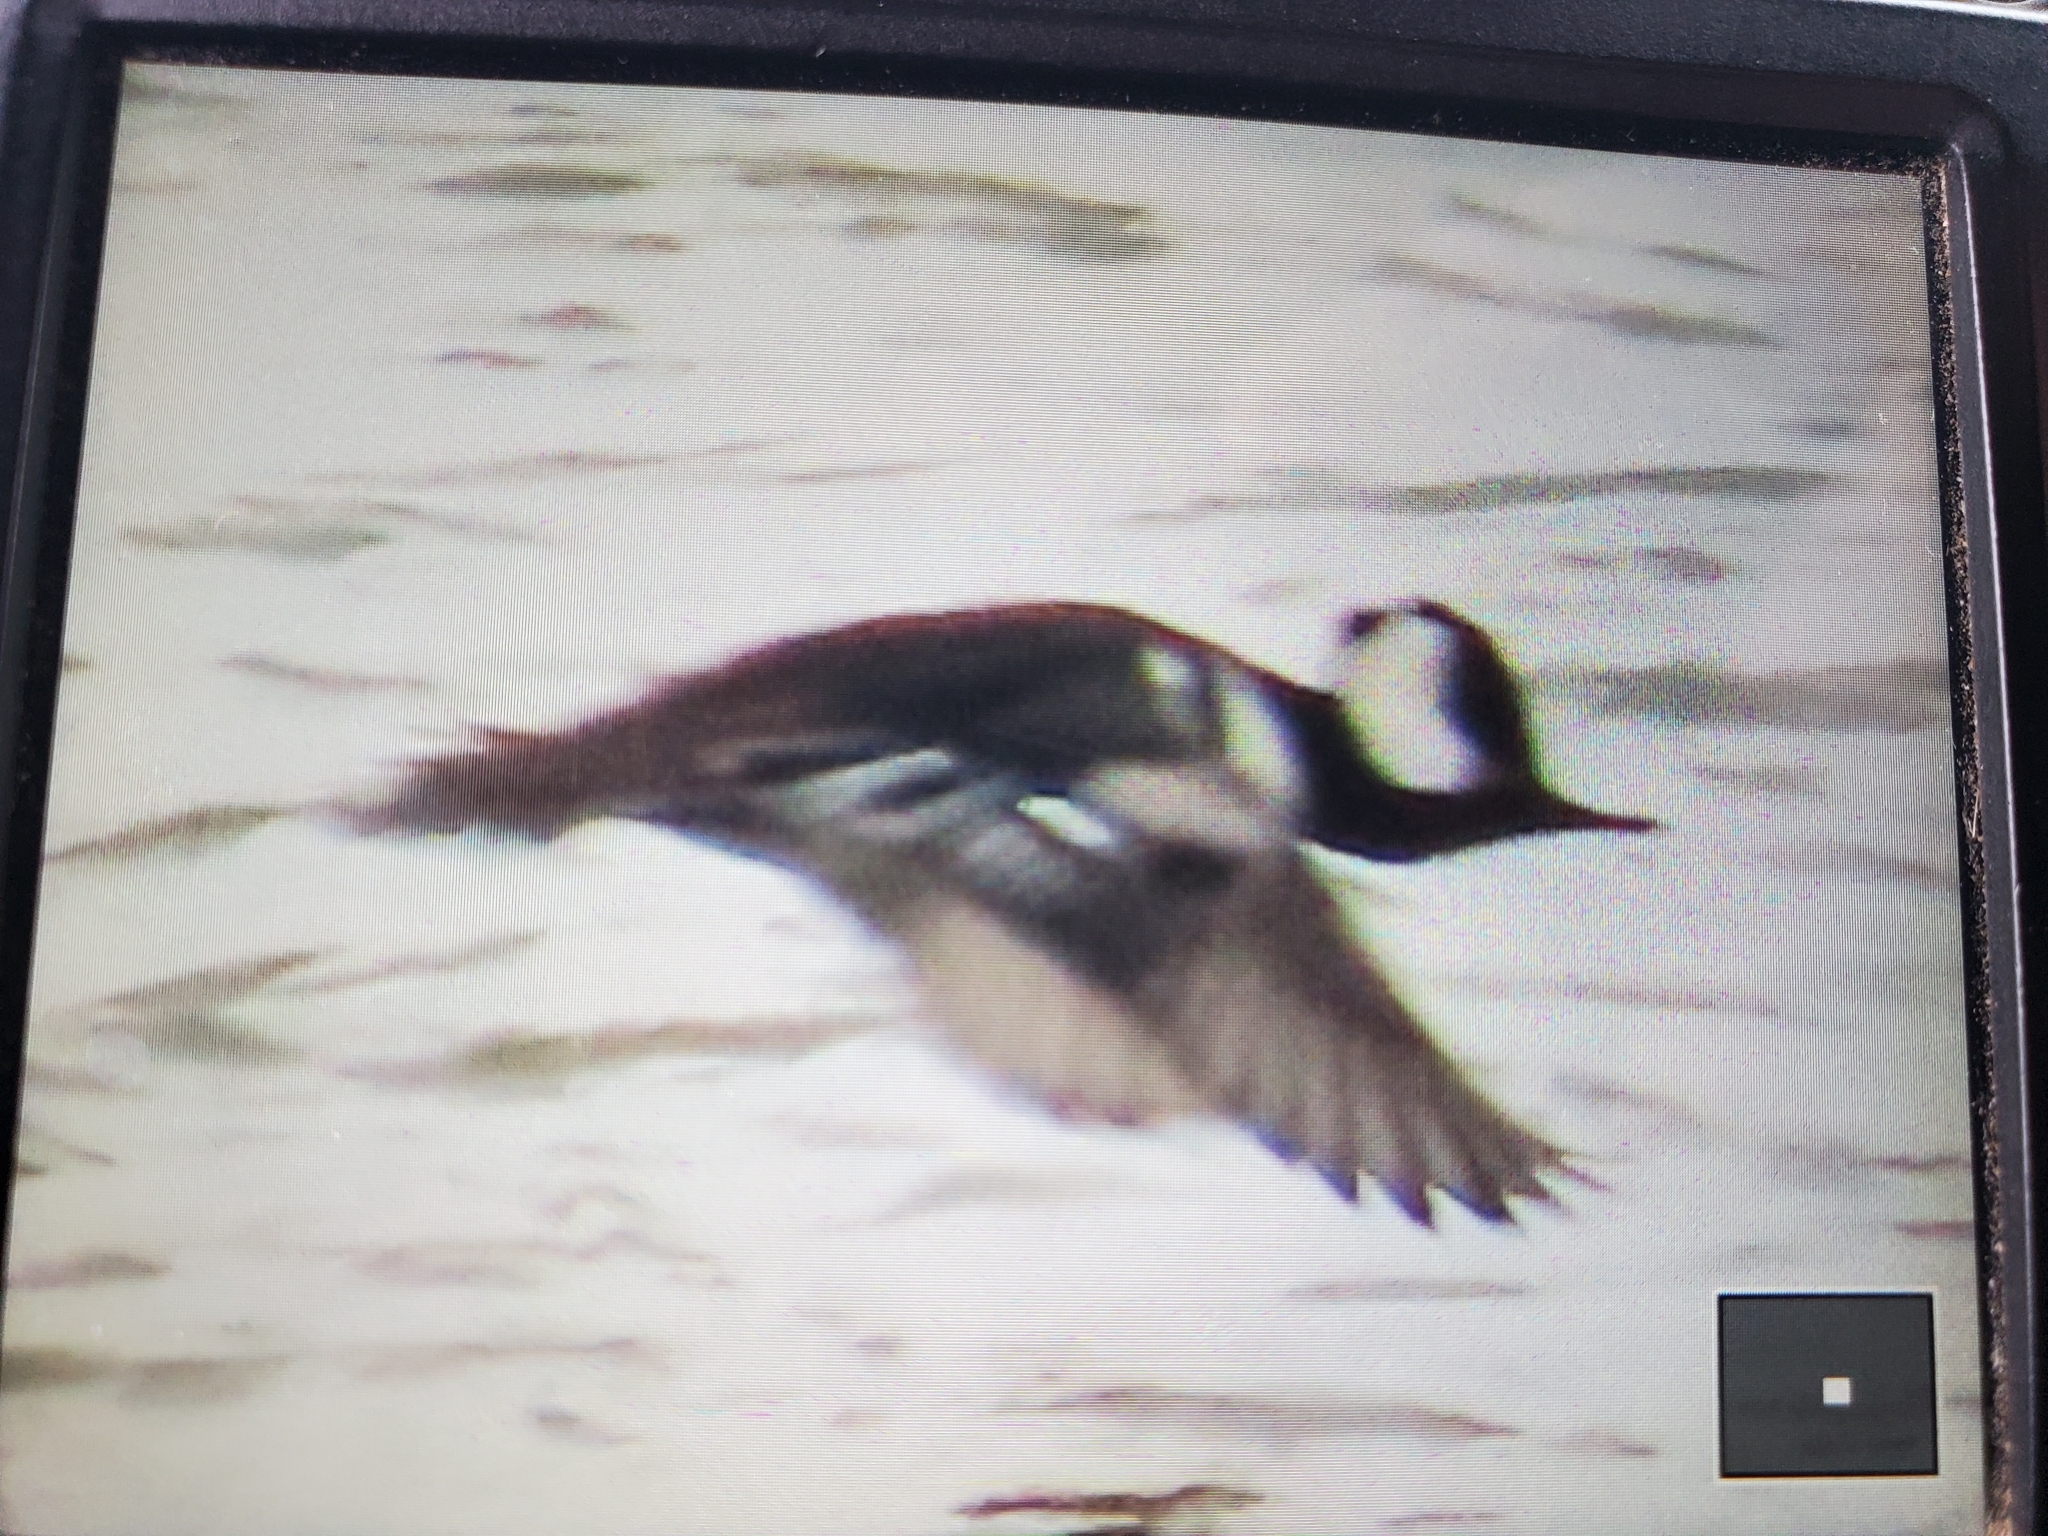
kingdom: Animalia
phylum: Chordata
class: Aves
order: Anseriformes
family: Anatidae
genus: Lophodytes
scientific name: Lophodytes cucullatus
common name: Hooded merganser
